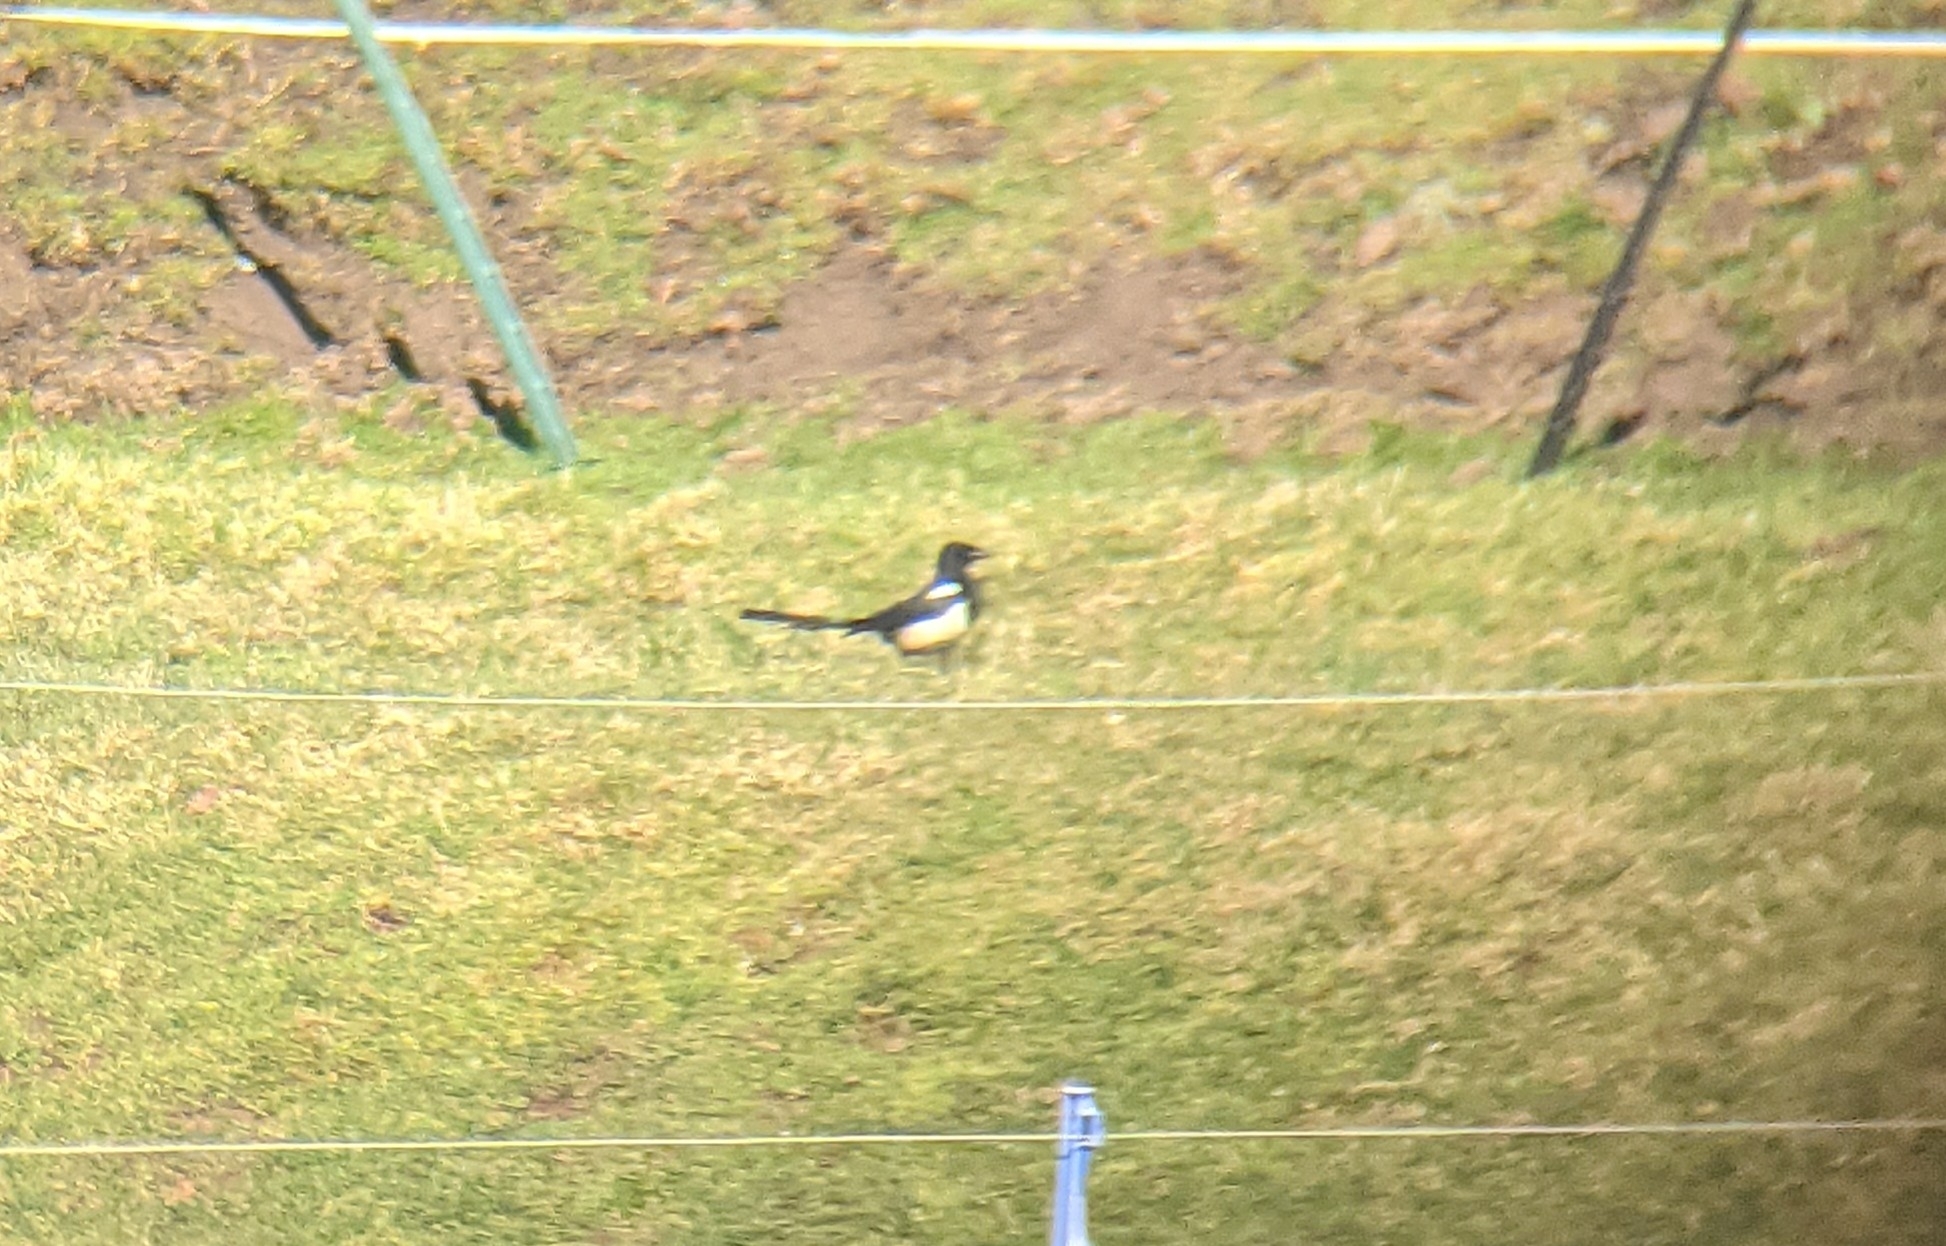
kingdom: Animalia
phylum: Chordata
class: Aves
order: Passeriformes
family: Corvidae
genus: Pica
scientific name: Pica pica
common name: Eurasian magpie
